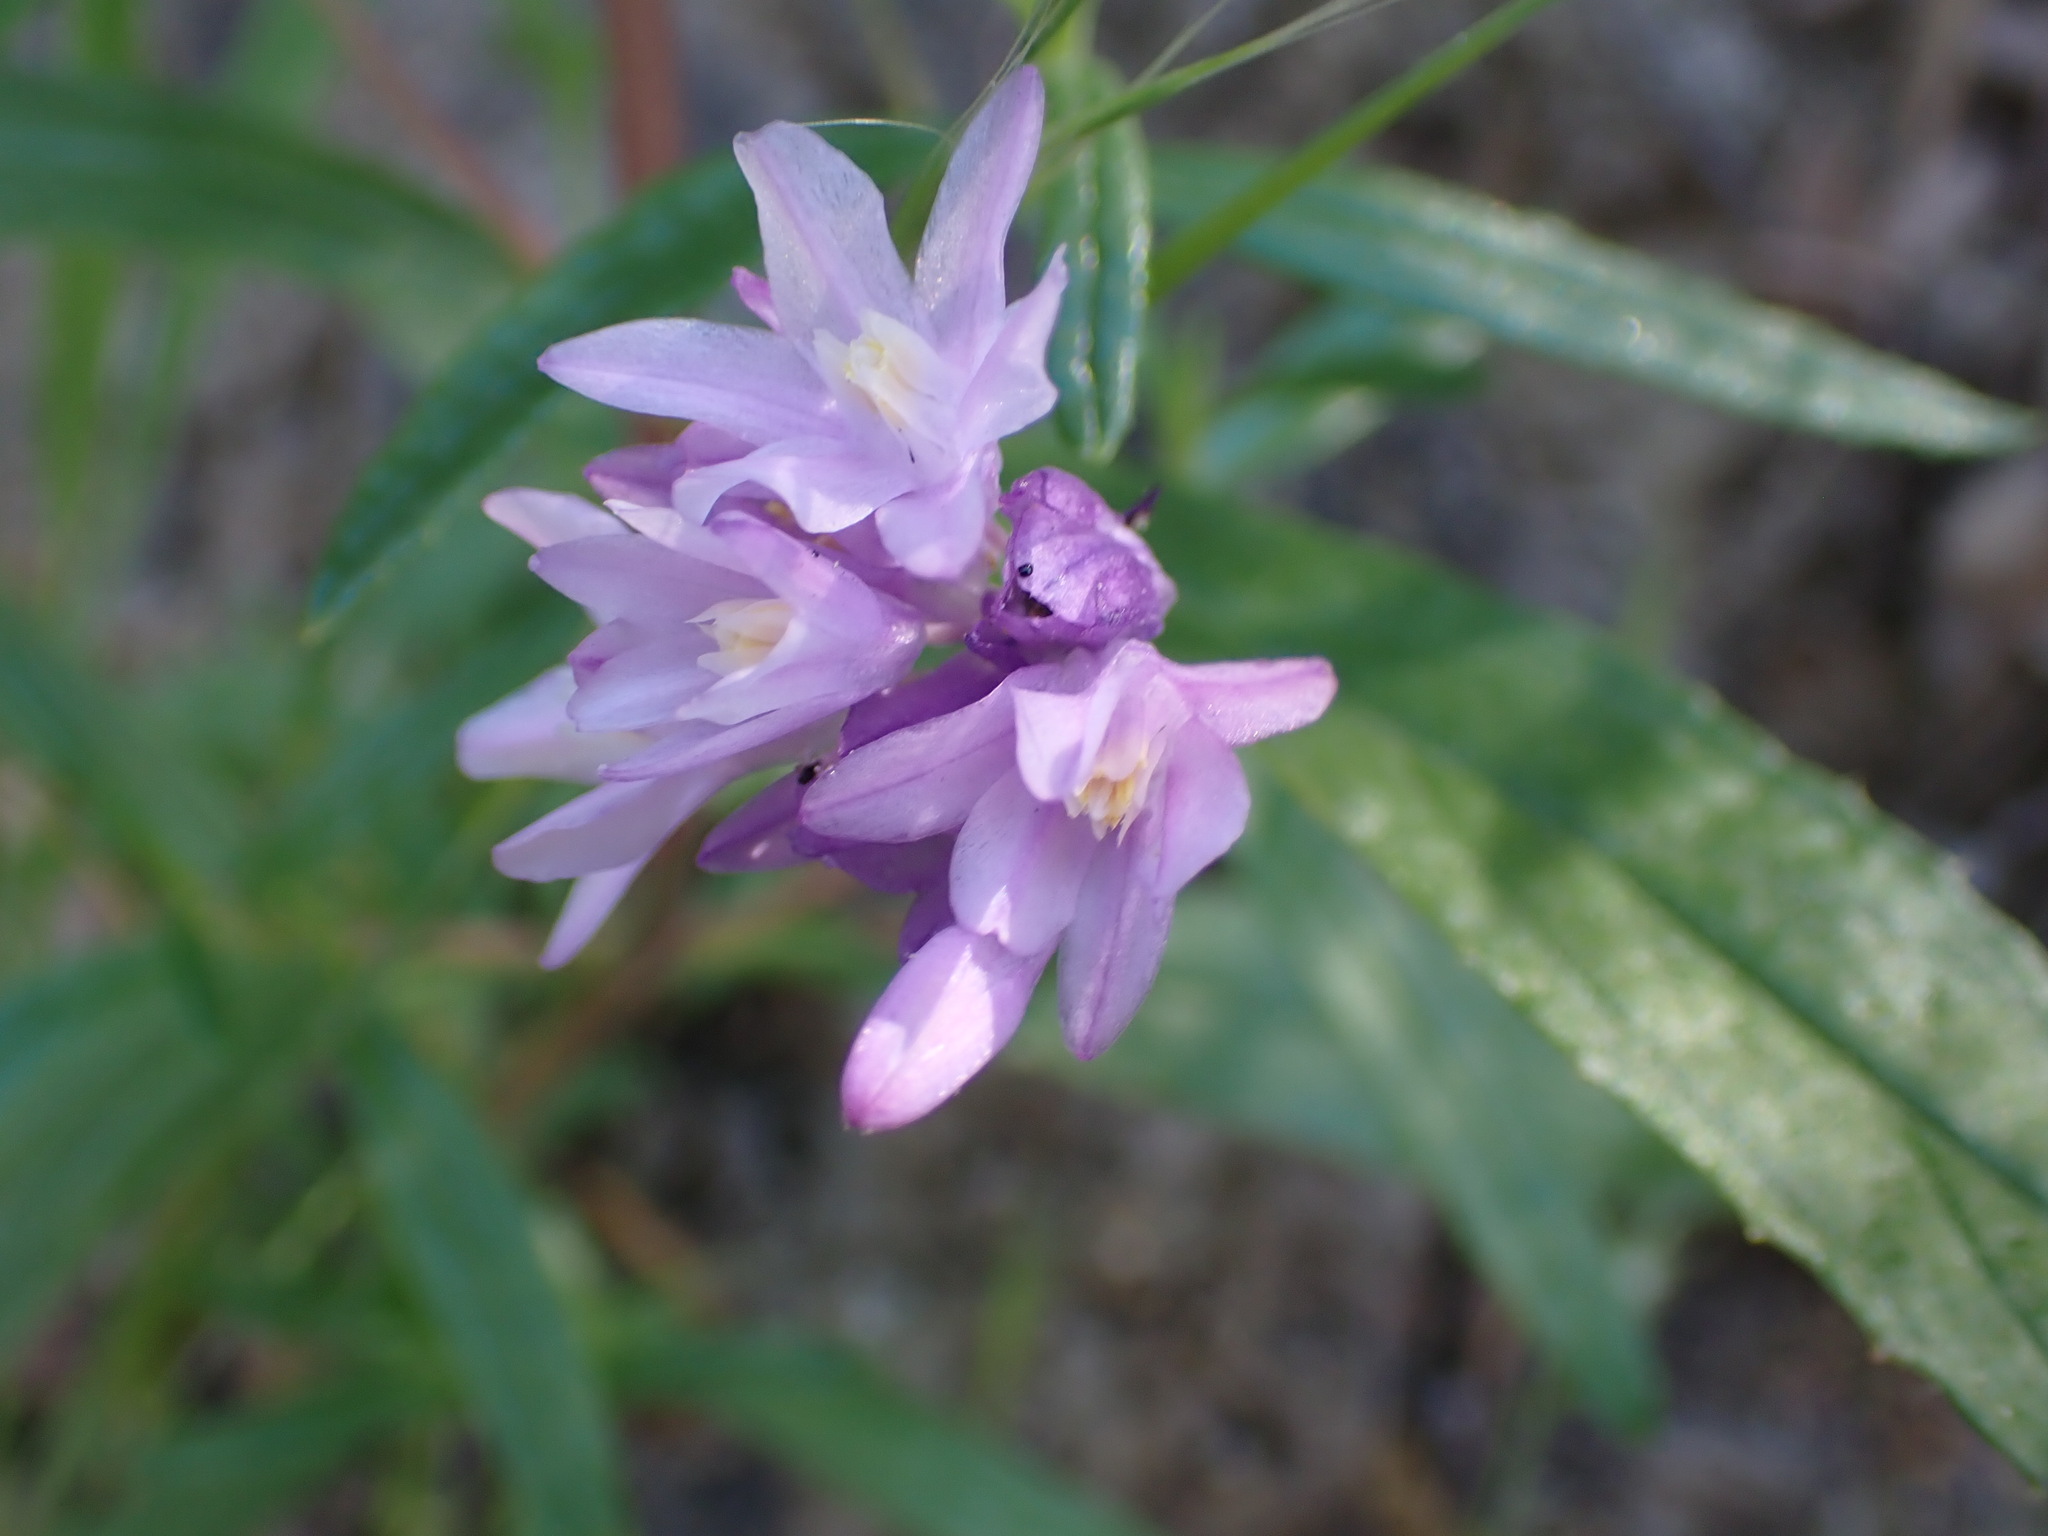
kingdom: Plantae
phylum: Tracheophyta
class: Liliopsida
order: Asparagales
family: Asparagaceae
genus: Dipterostemon
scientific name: Dipterostemon capitatus
